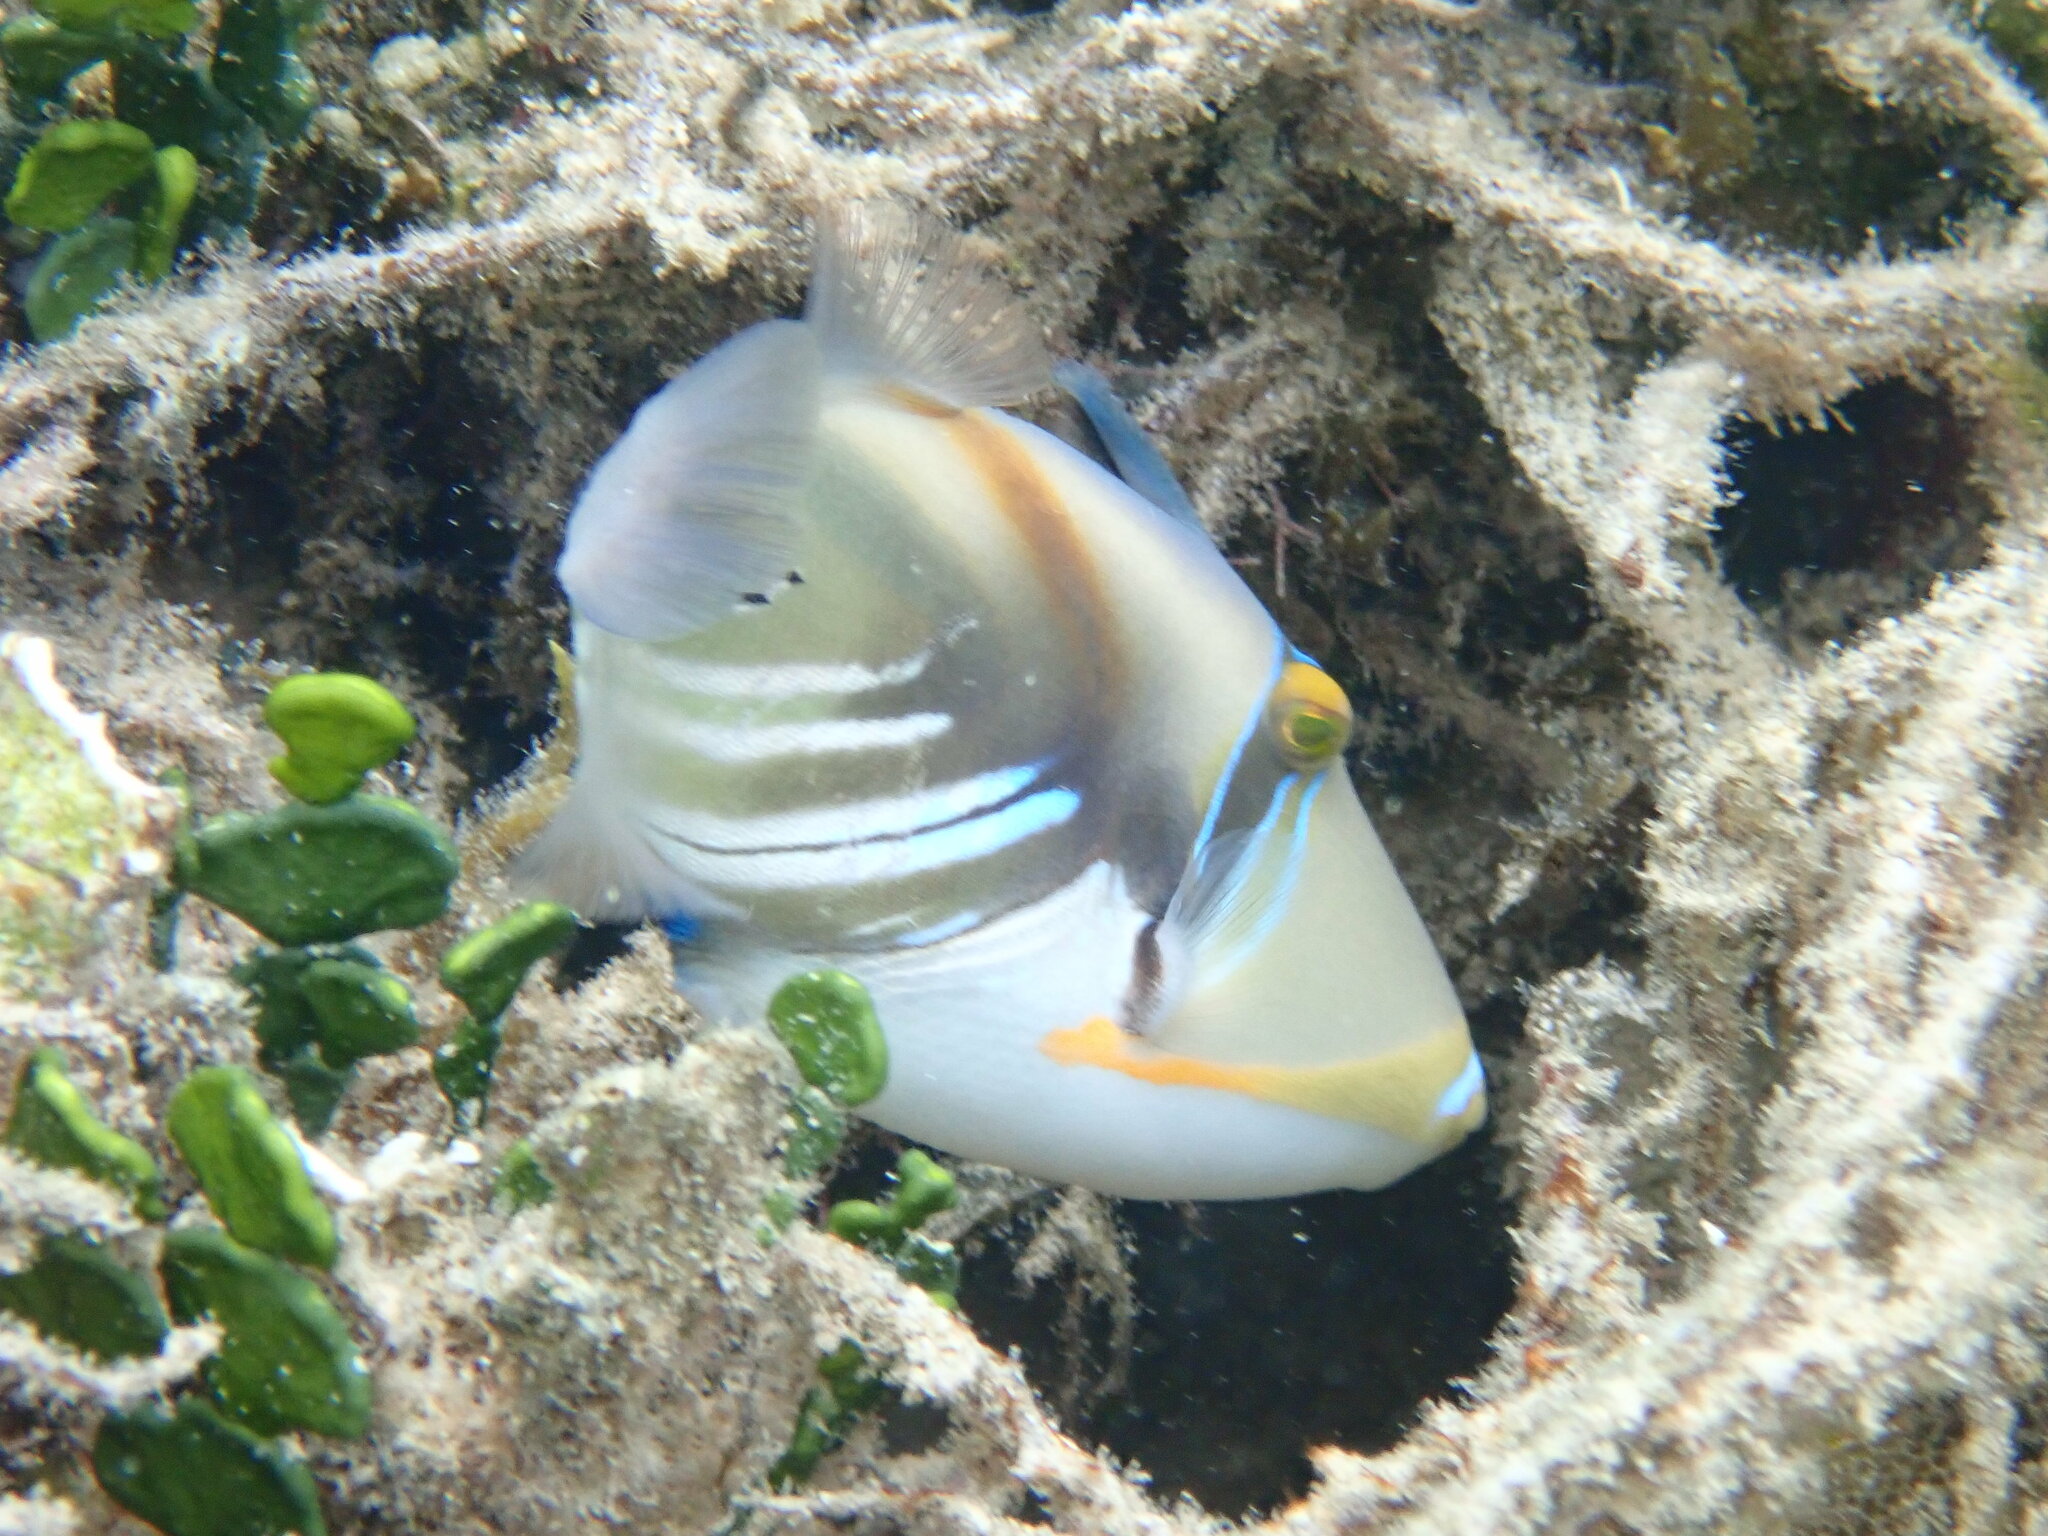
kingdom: Animalia
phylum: Chordata
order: Tetraodontiformes
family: Balistidae
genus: Rhinecanthus
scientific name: Rhinecanthus aculeatus
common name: White-banded triggerfish
